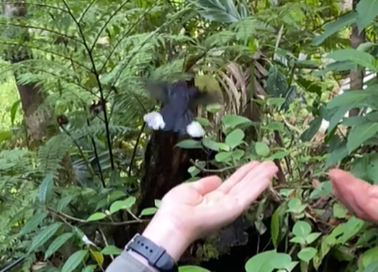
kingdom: Animalia
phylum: Chordata
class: Aves
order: Apodiformes
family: Trochilidae
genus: Campylopterus
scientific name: Campylopterus hemileucurus
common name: Violet sabrewing
